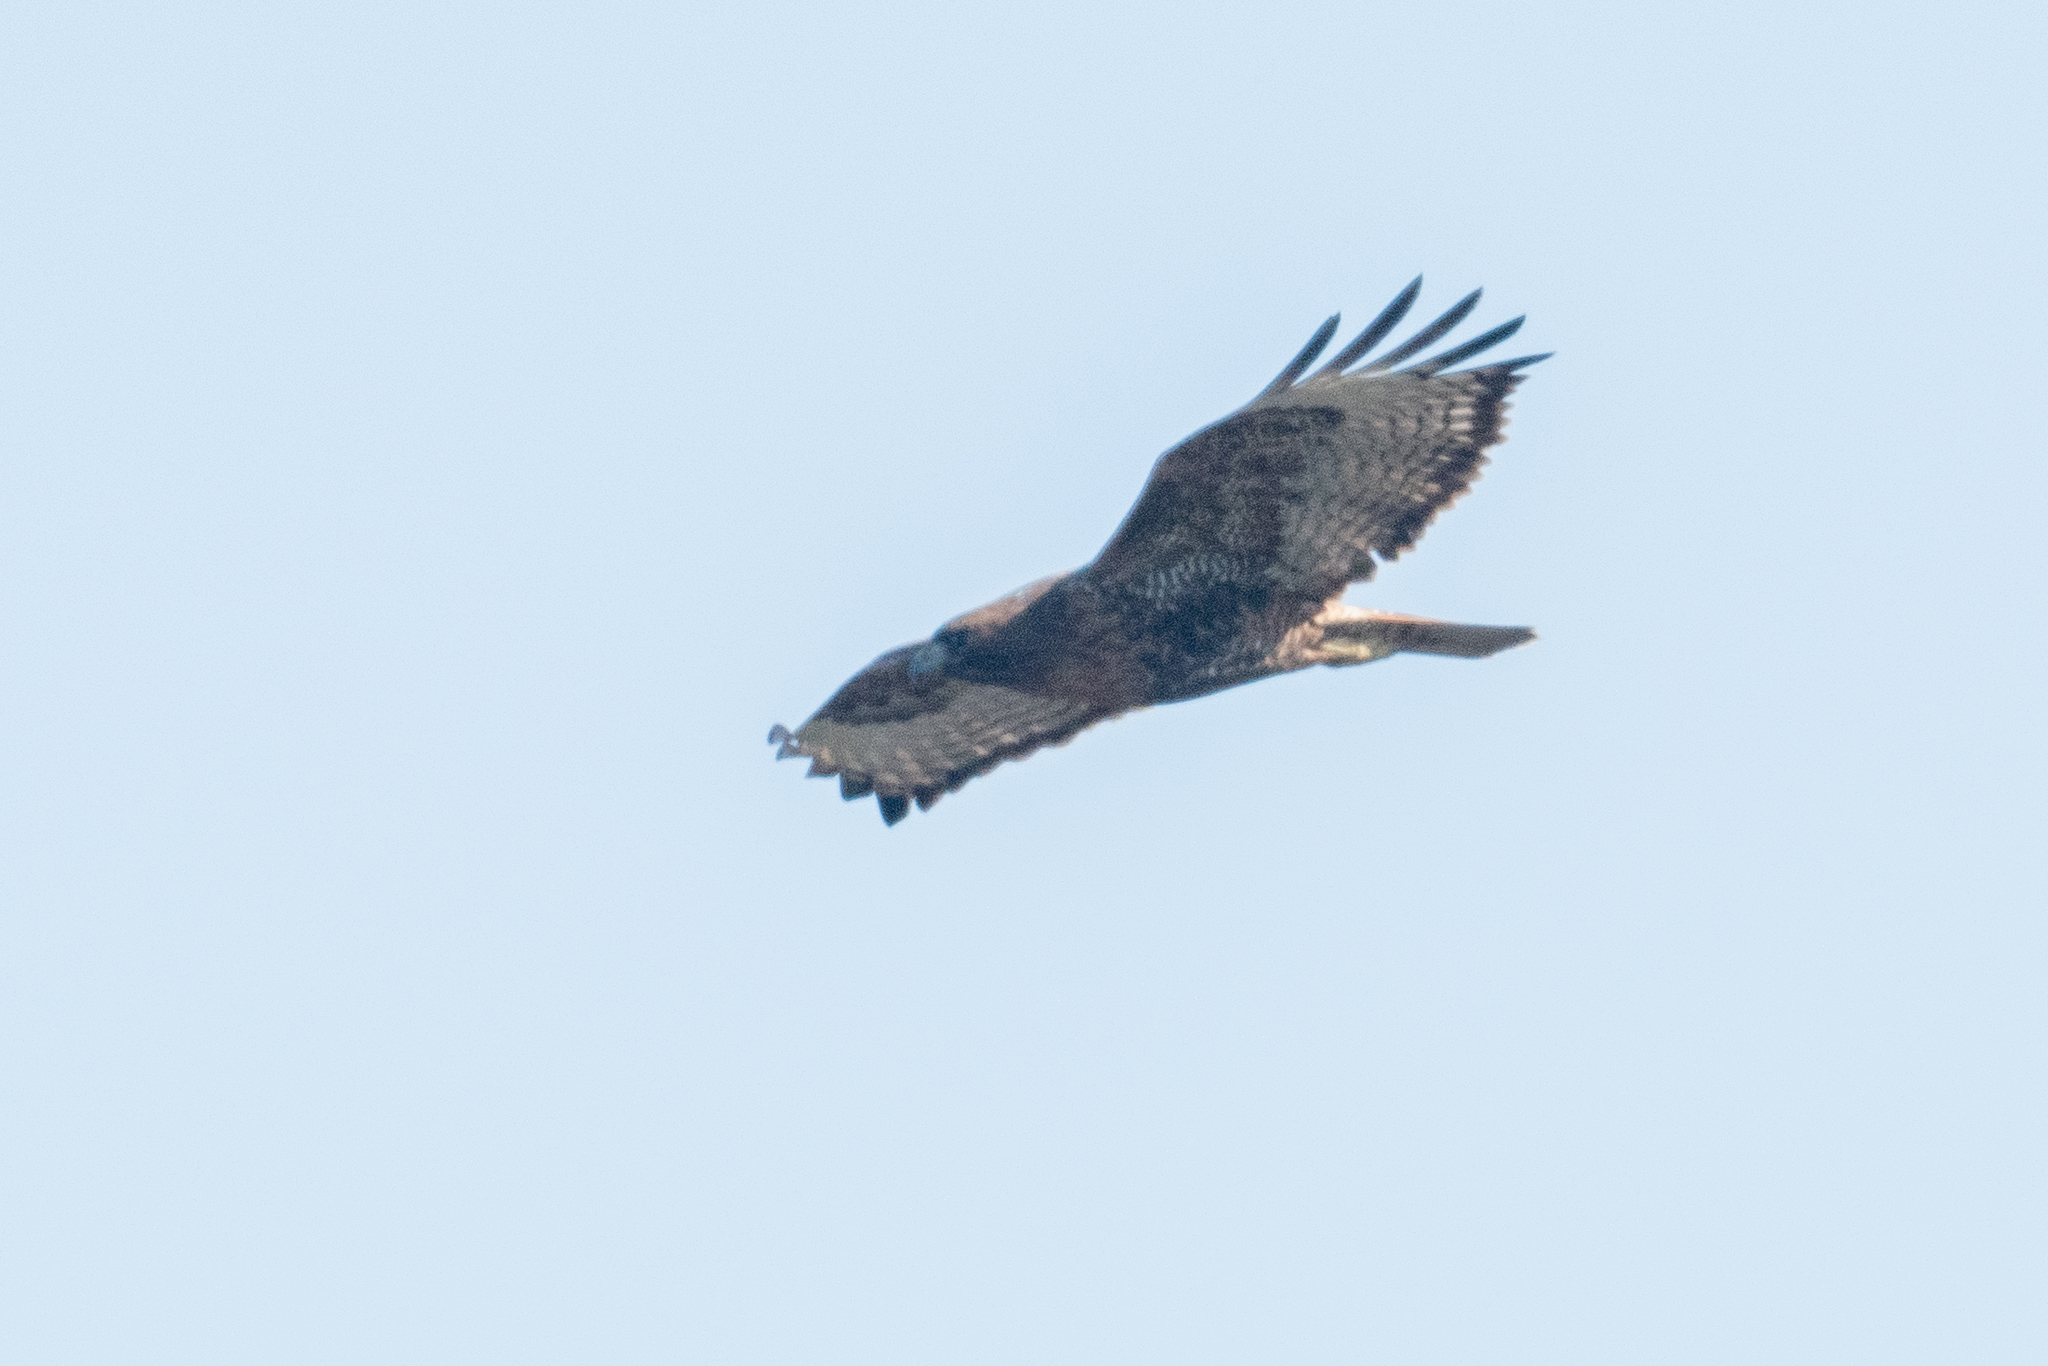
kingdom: Animalia
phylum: Chordata
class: Aves
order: Accipitriformes
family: Accipitridae
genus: Buteo
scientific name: Buteo jamaicensis
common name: Red-tailed hawk
